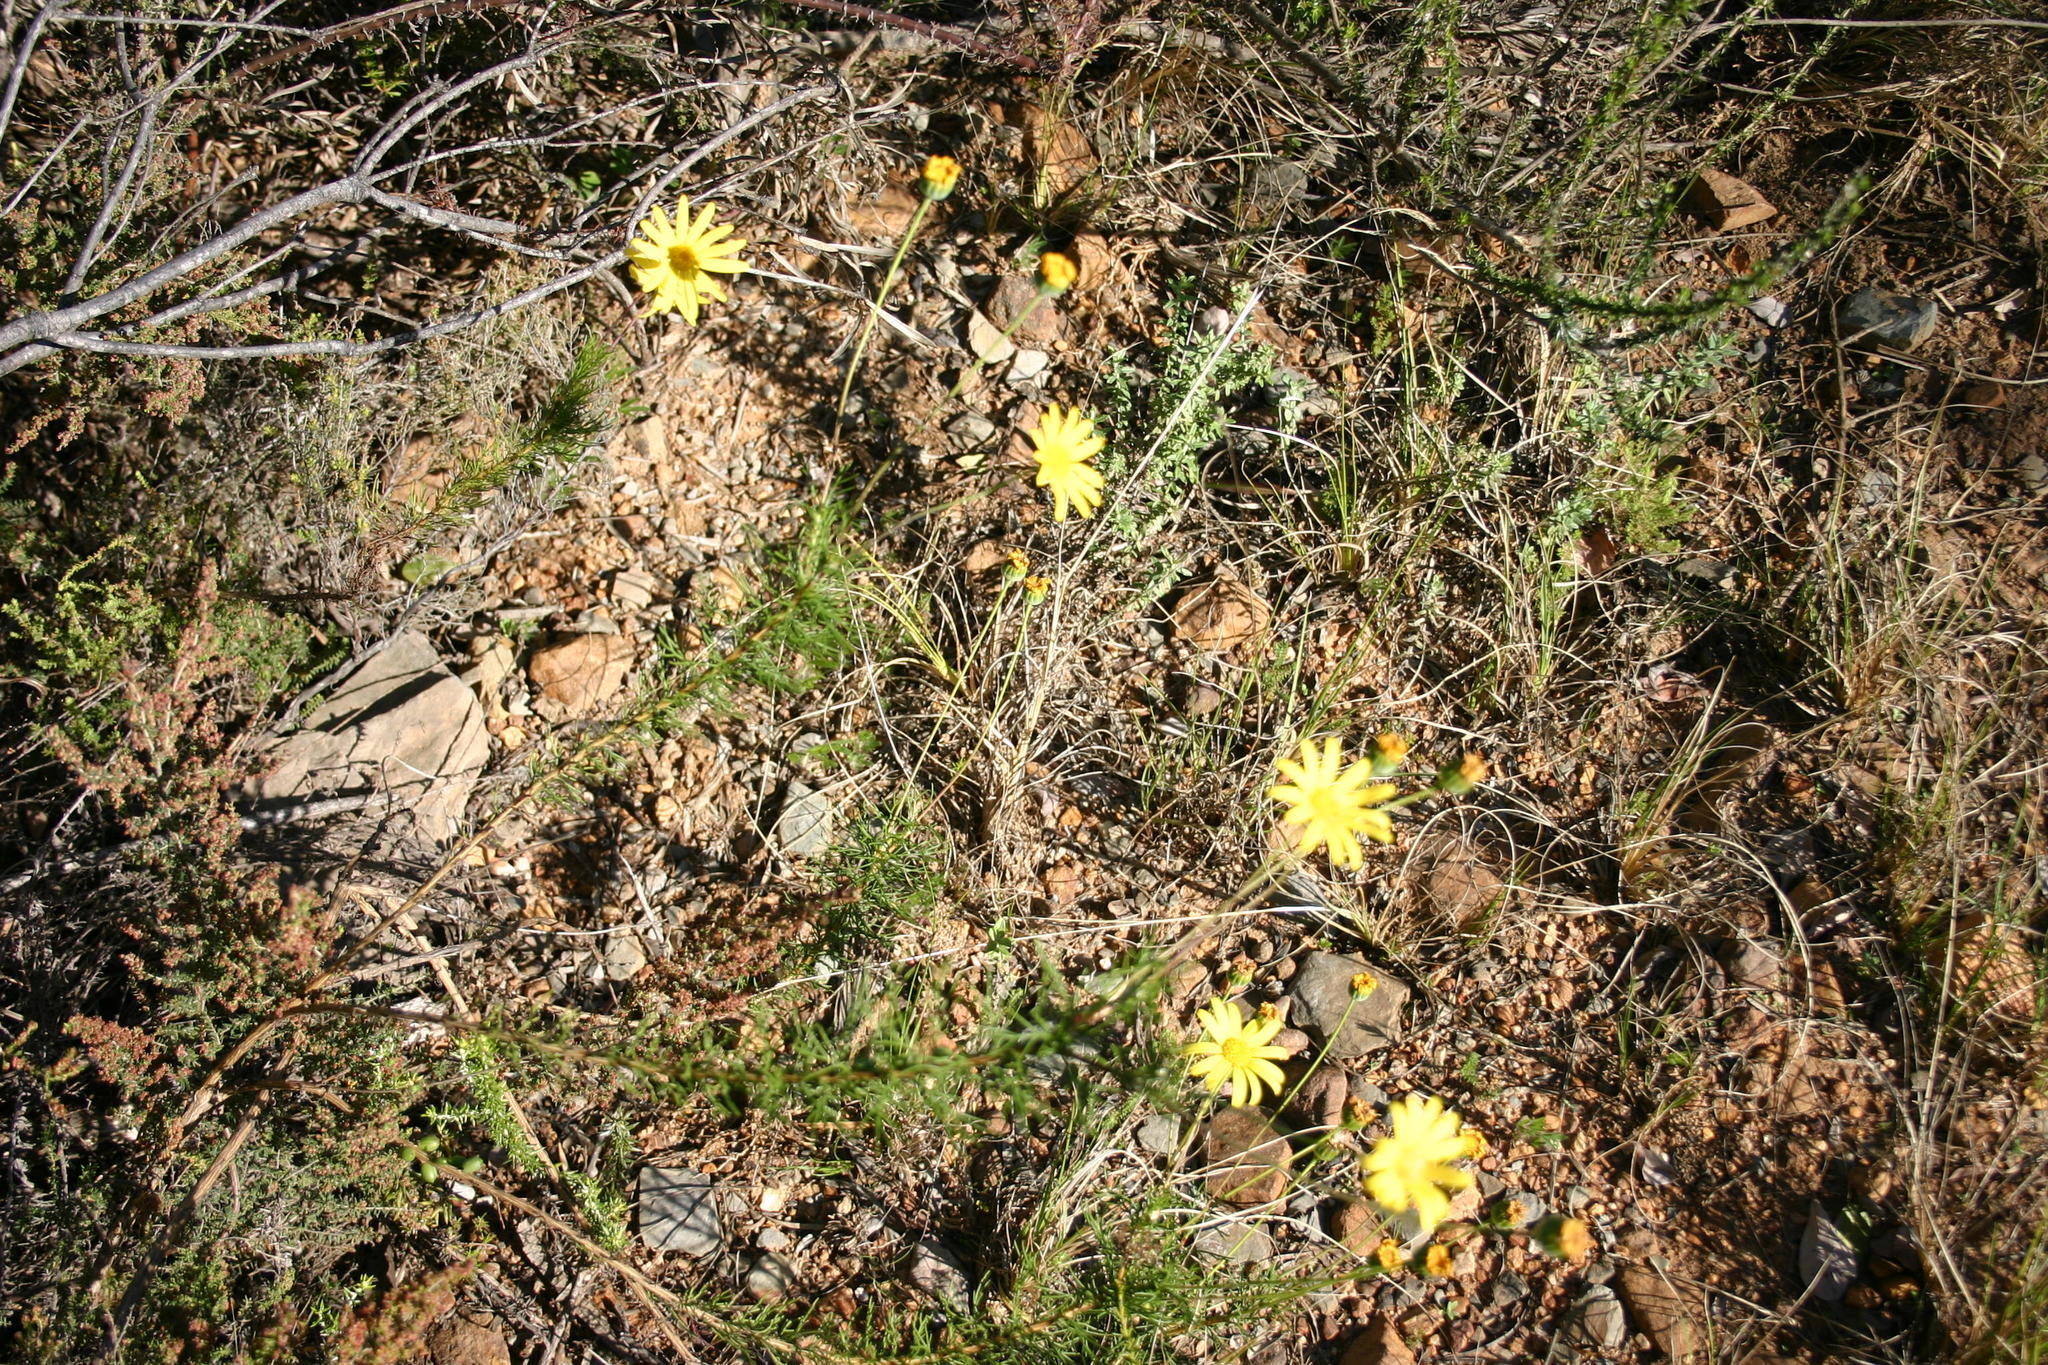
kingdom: Plantae
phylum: Tracheophyta
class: Magnoliopsida
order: Asterales
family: Asteraceae
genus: Euryops
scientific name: Euryops abrotanifolius
